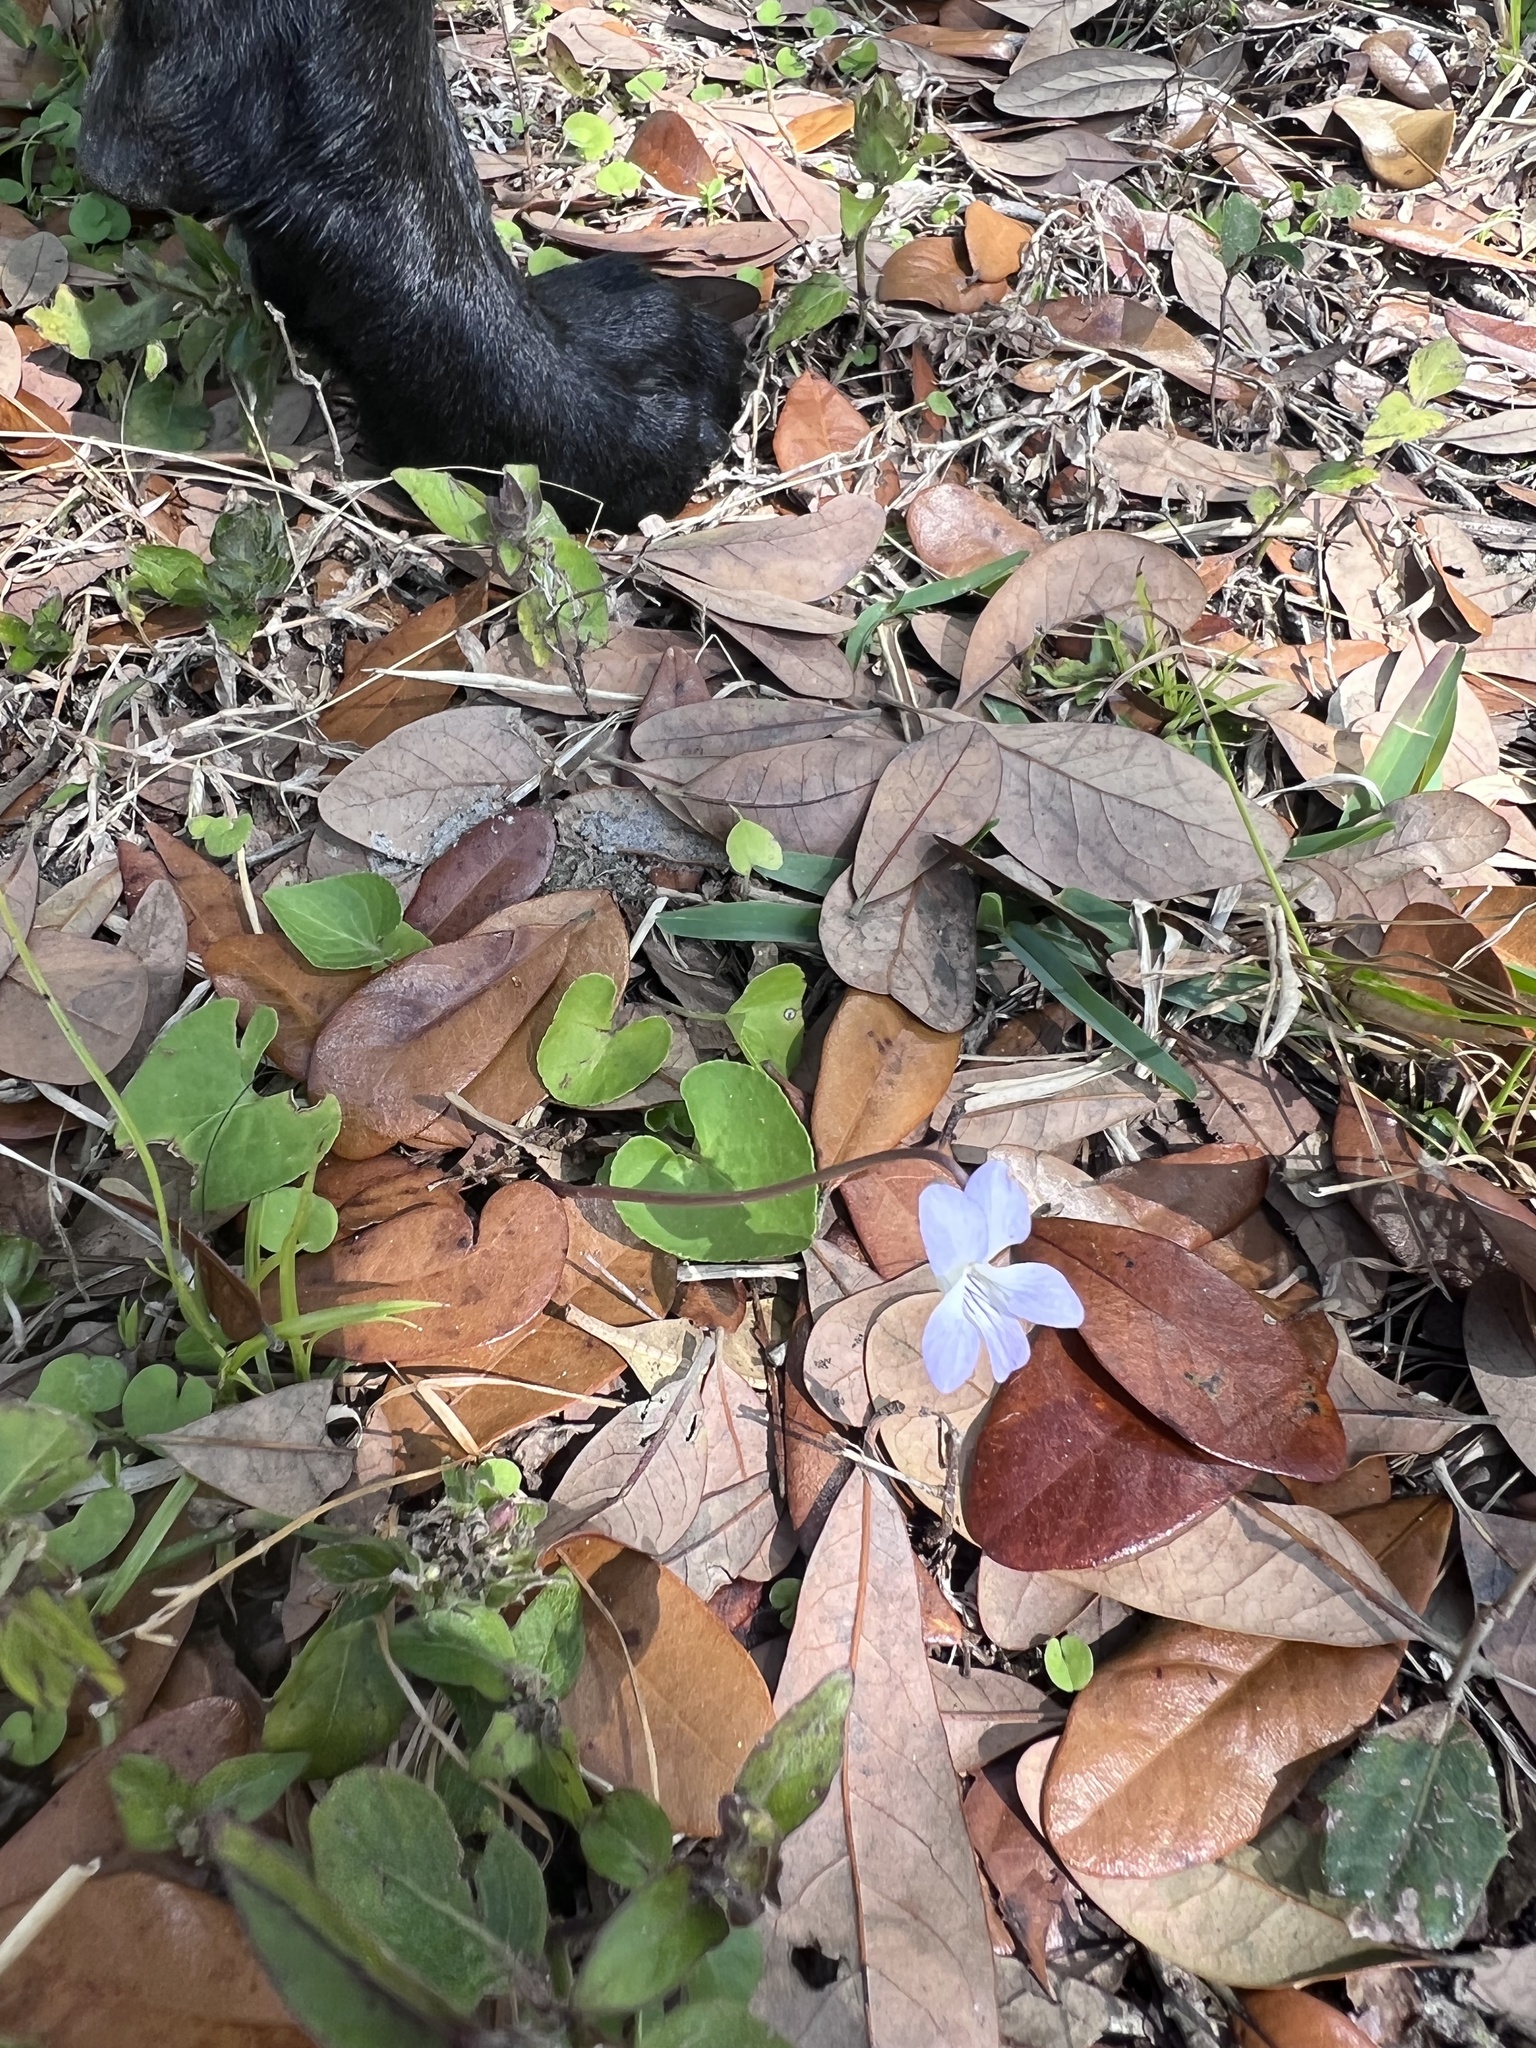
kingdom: Plantae
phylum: Tracheophyta
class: Magnoliopsida
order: Malpighiales
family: Violaceae
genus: Viola
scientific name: Viola septemloba
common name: Southern coast violet
